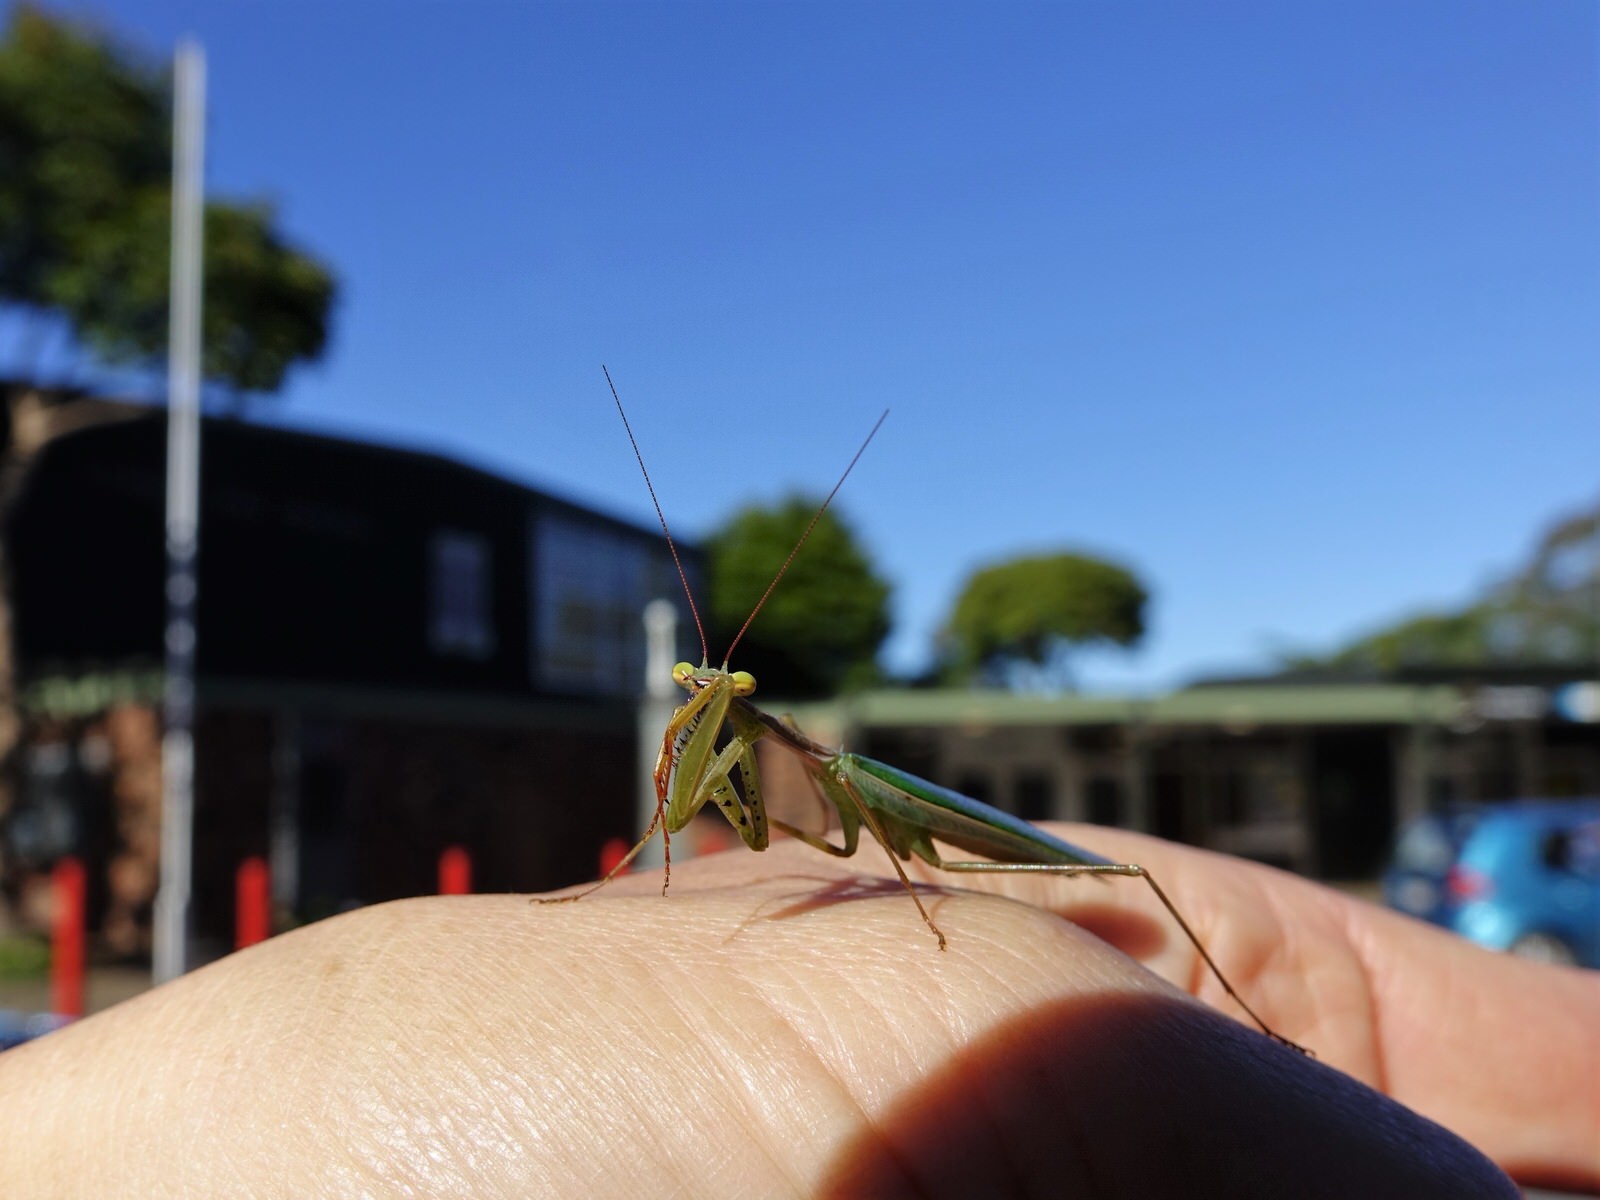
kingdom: Animalia
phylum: Arthropoda
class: Insecta
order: Mantodea
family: Miomantidae
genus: Miomantis
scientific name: Miomantis caffra
